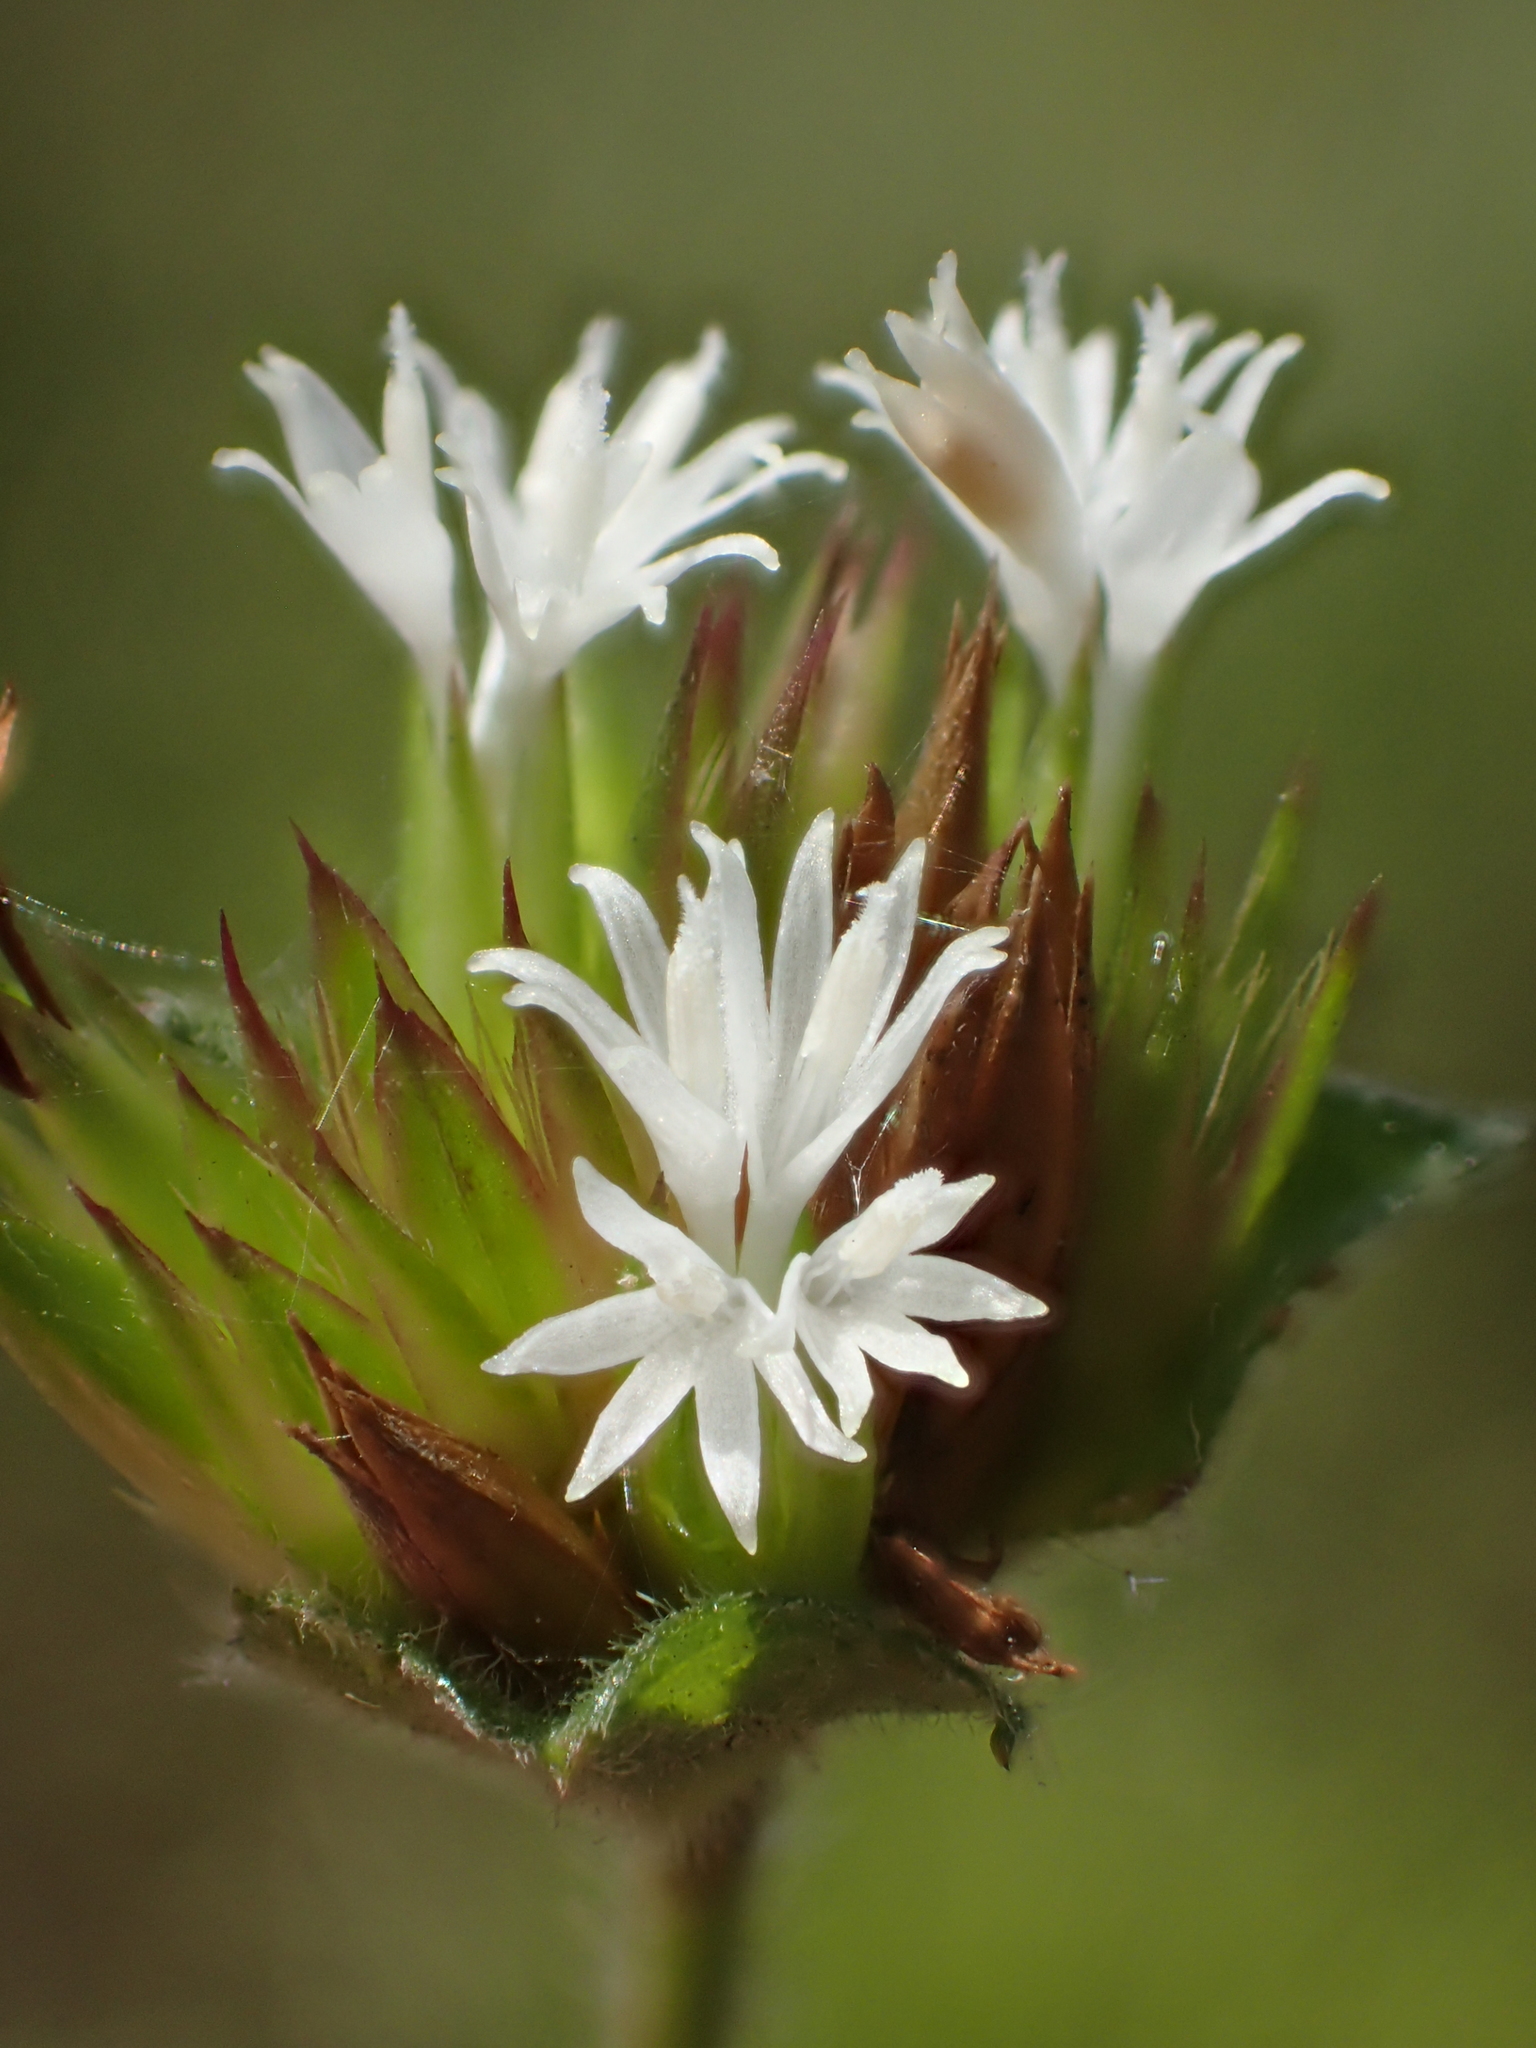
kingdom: Plantae
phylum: Tracheophyta
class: Magnoliopsida
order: Asterales
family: Asteraceae
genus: Elephantopus
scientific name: Elephantopus mollis
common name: Soft elephantsfoot
